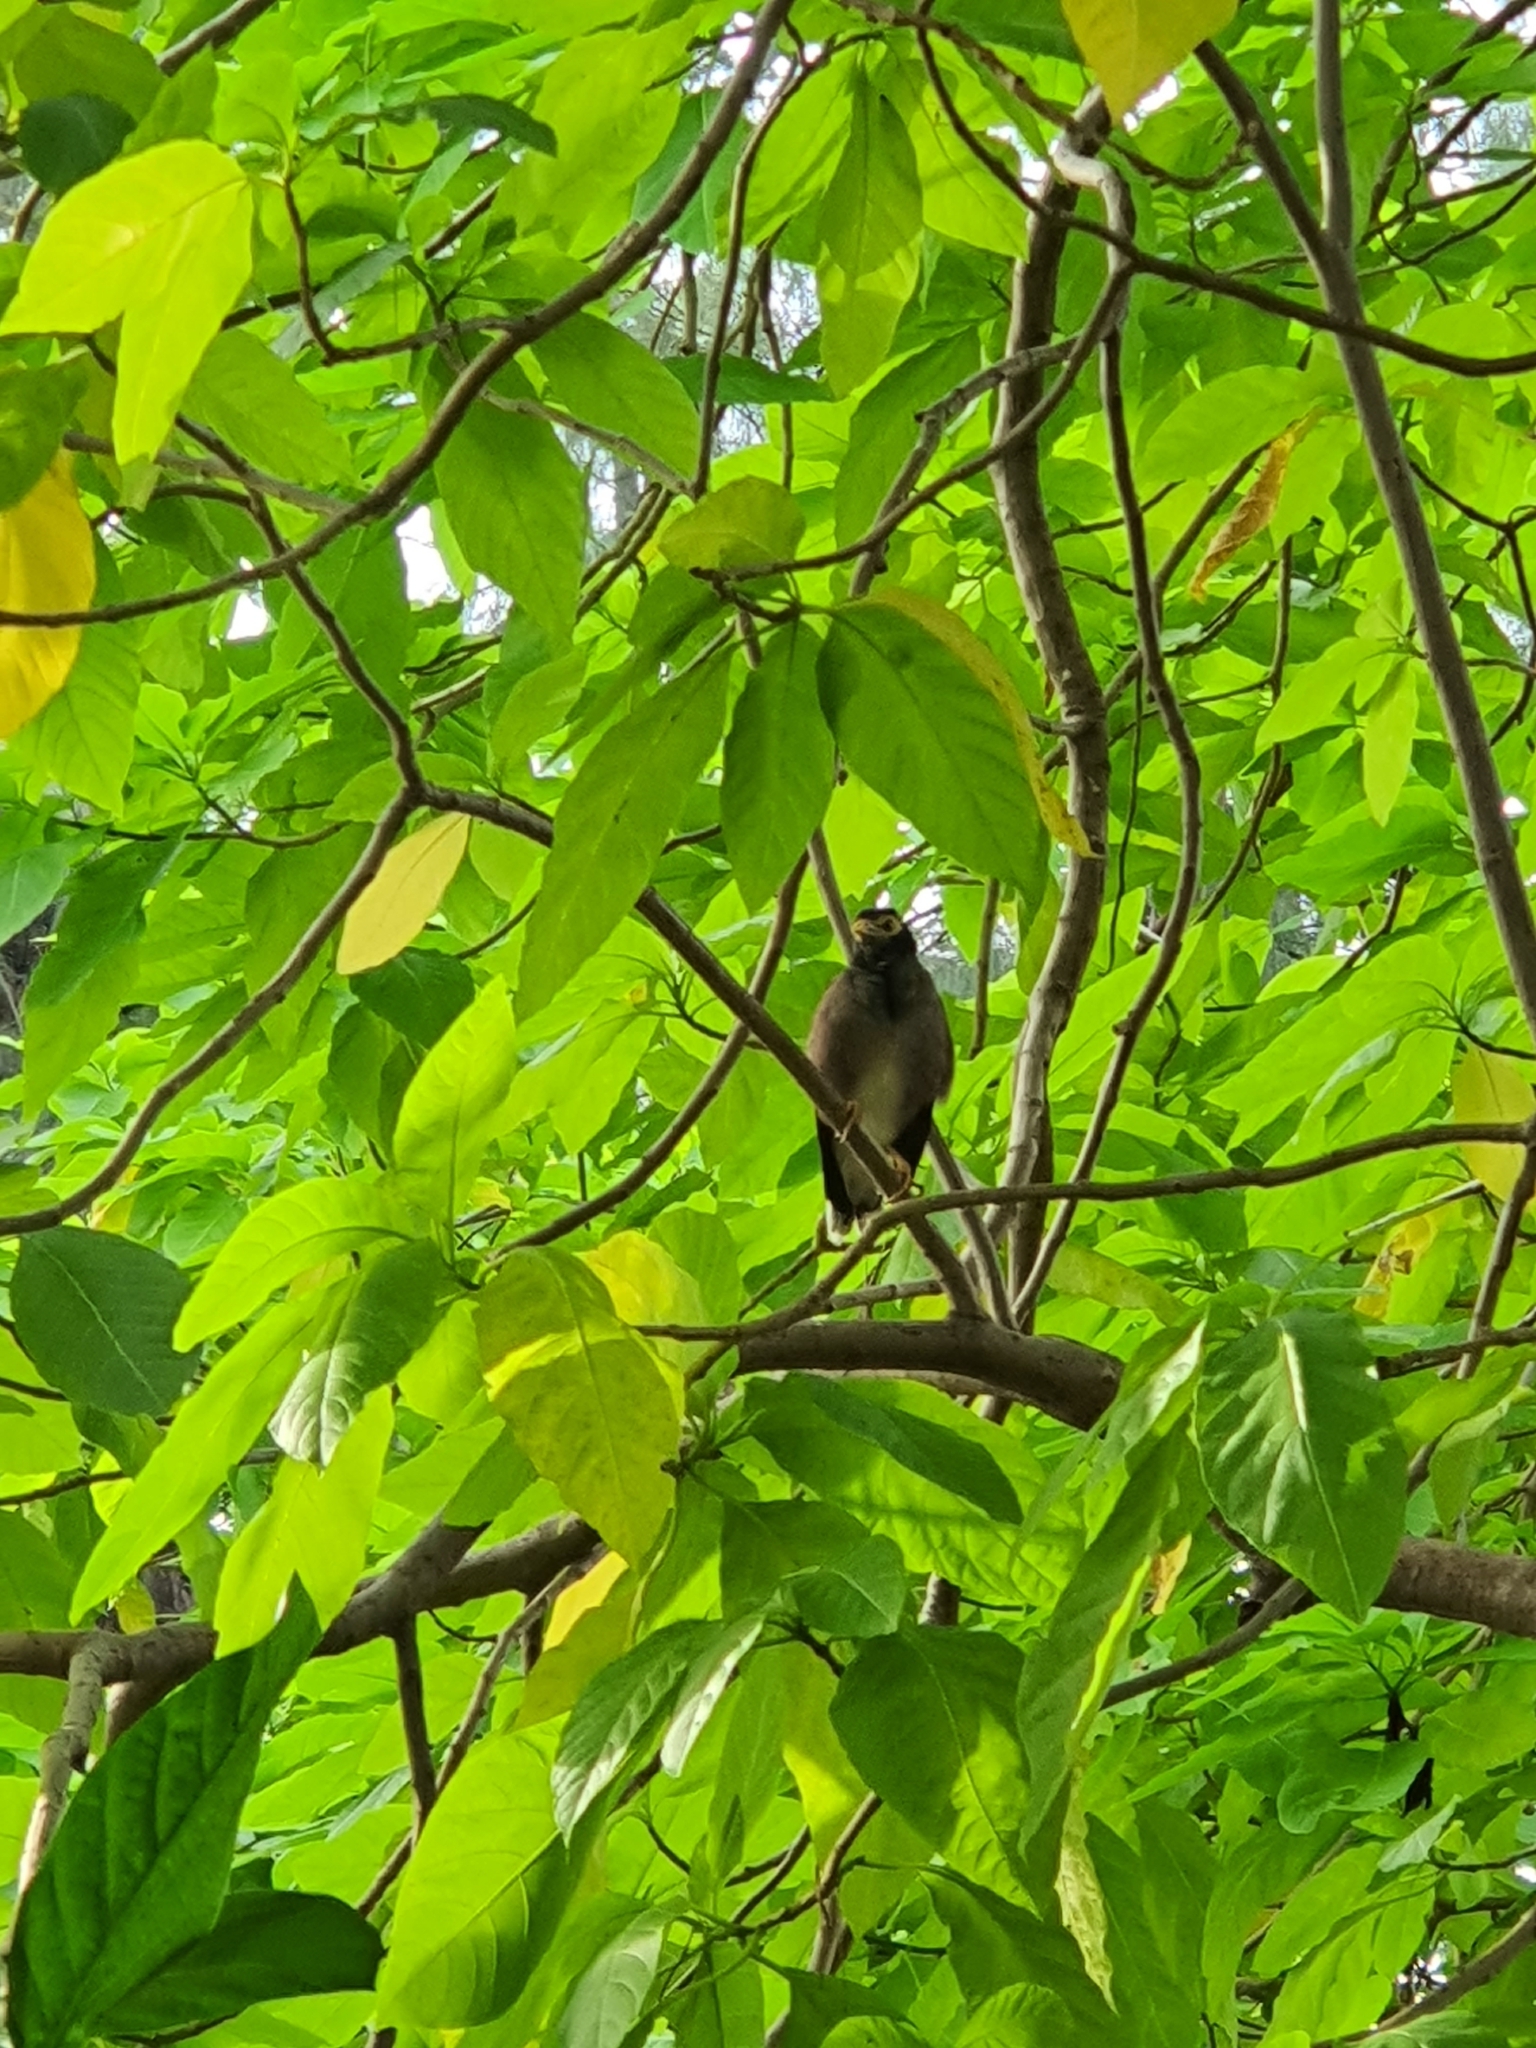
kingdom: Animalia
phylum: Chordata
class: Aves
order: Passeriformes
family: Sturnidae
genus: Acridotheres
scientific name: Acridotheres tristis
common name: Common myna
